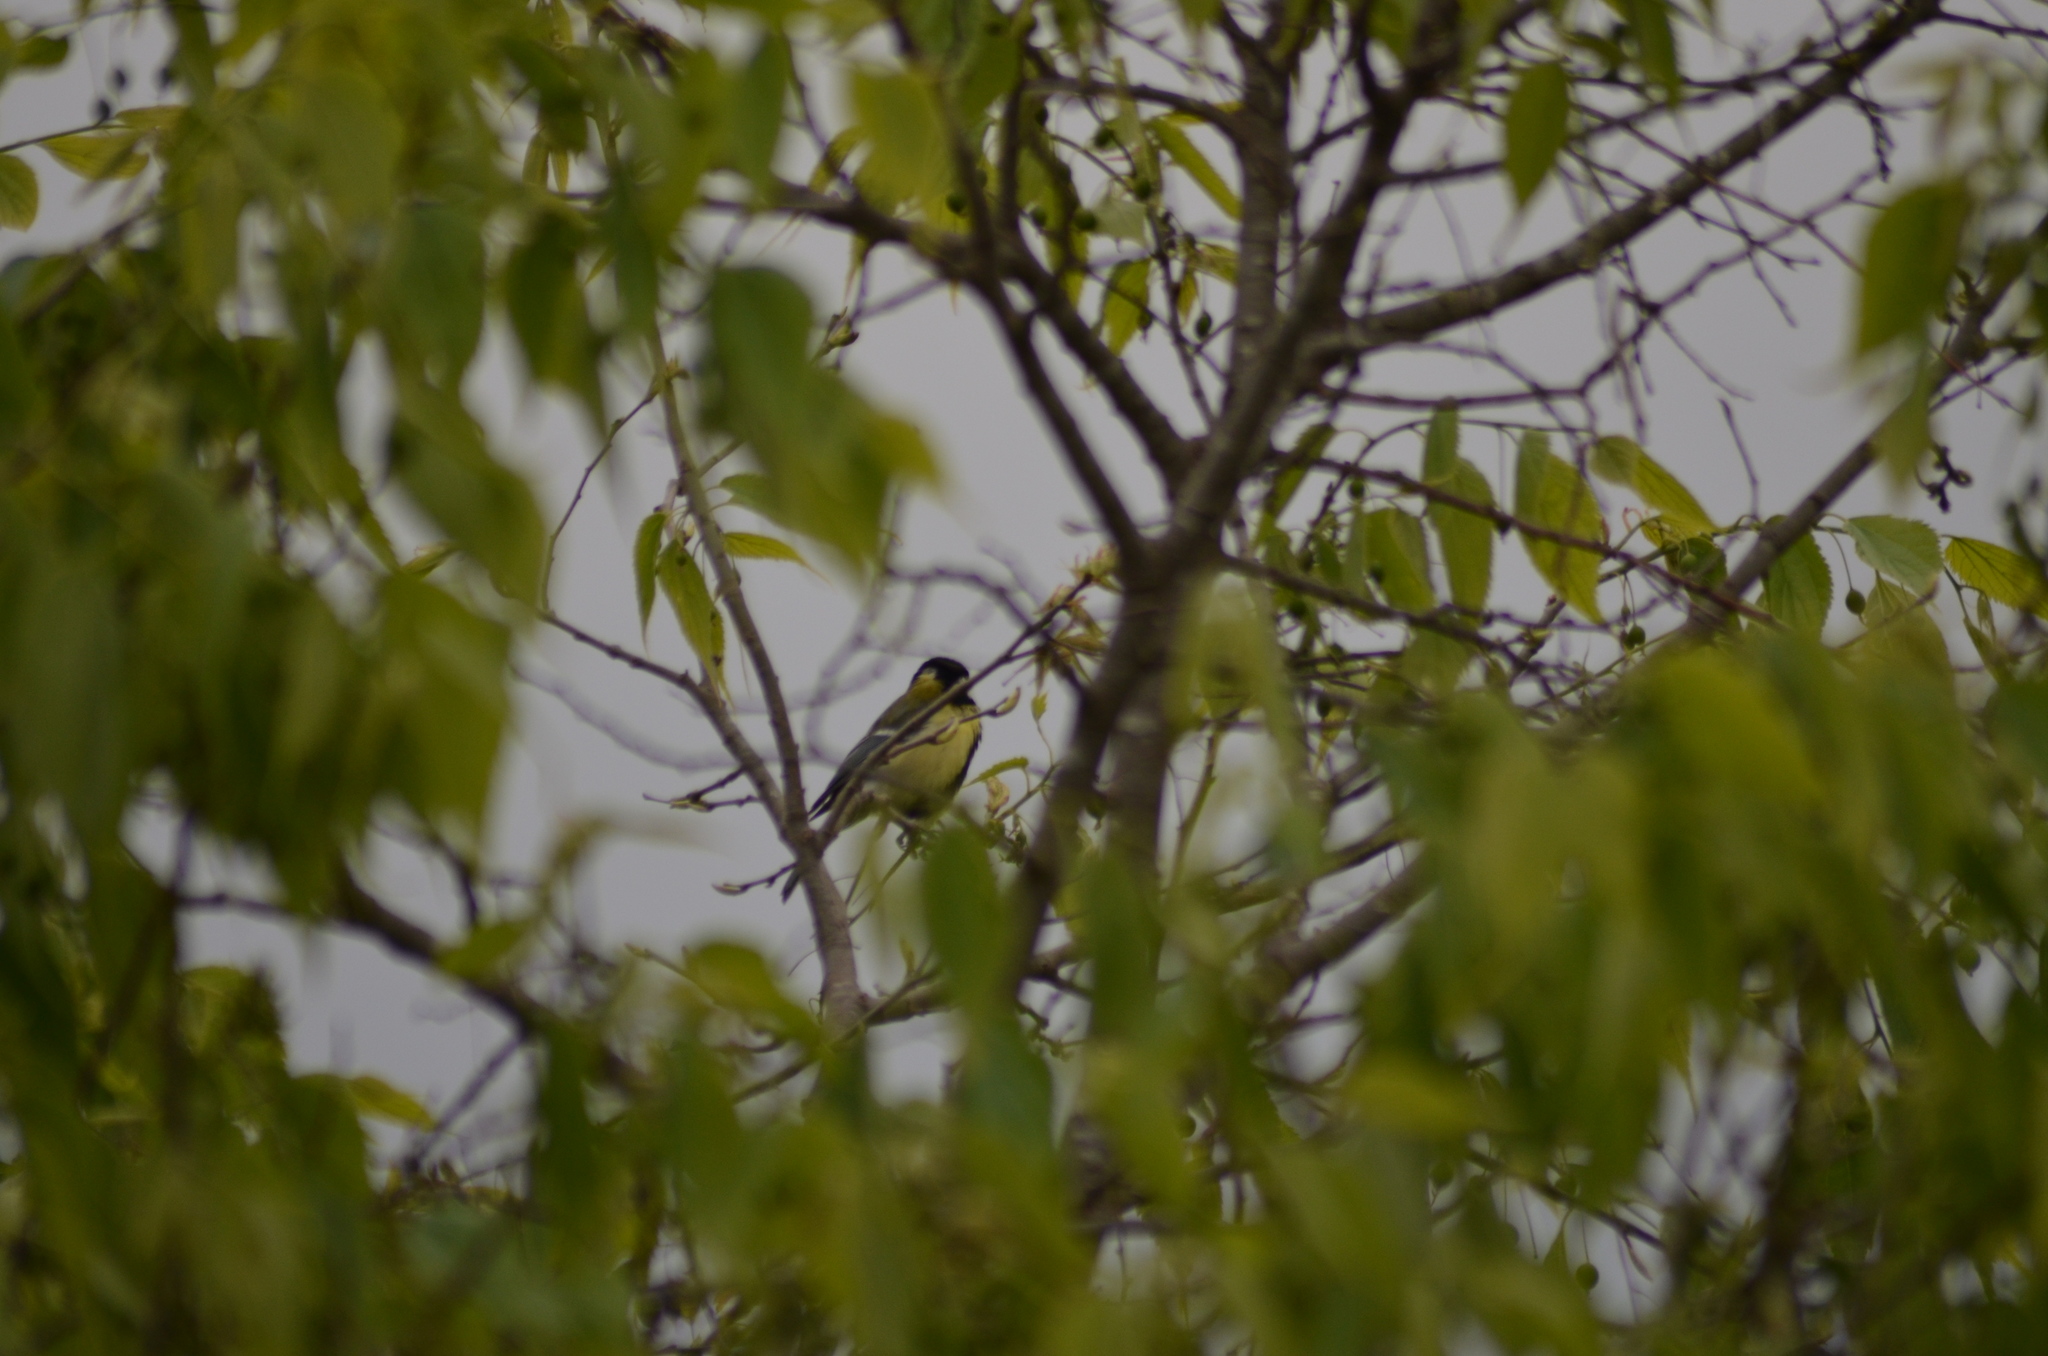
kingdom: Animalia
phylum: Chordata
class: Aves
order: Passeriformes
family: Paridae
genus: Parus
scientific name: Parus major
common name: Great tit
